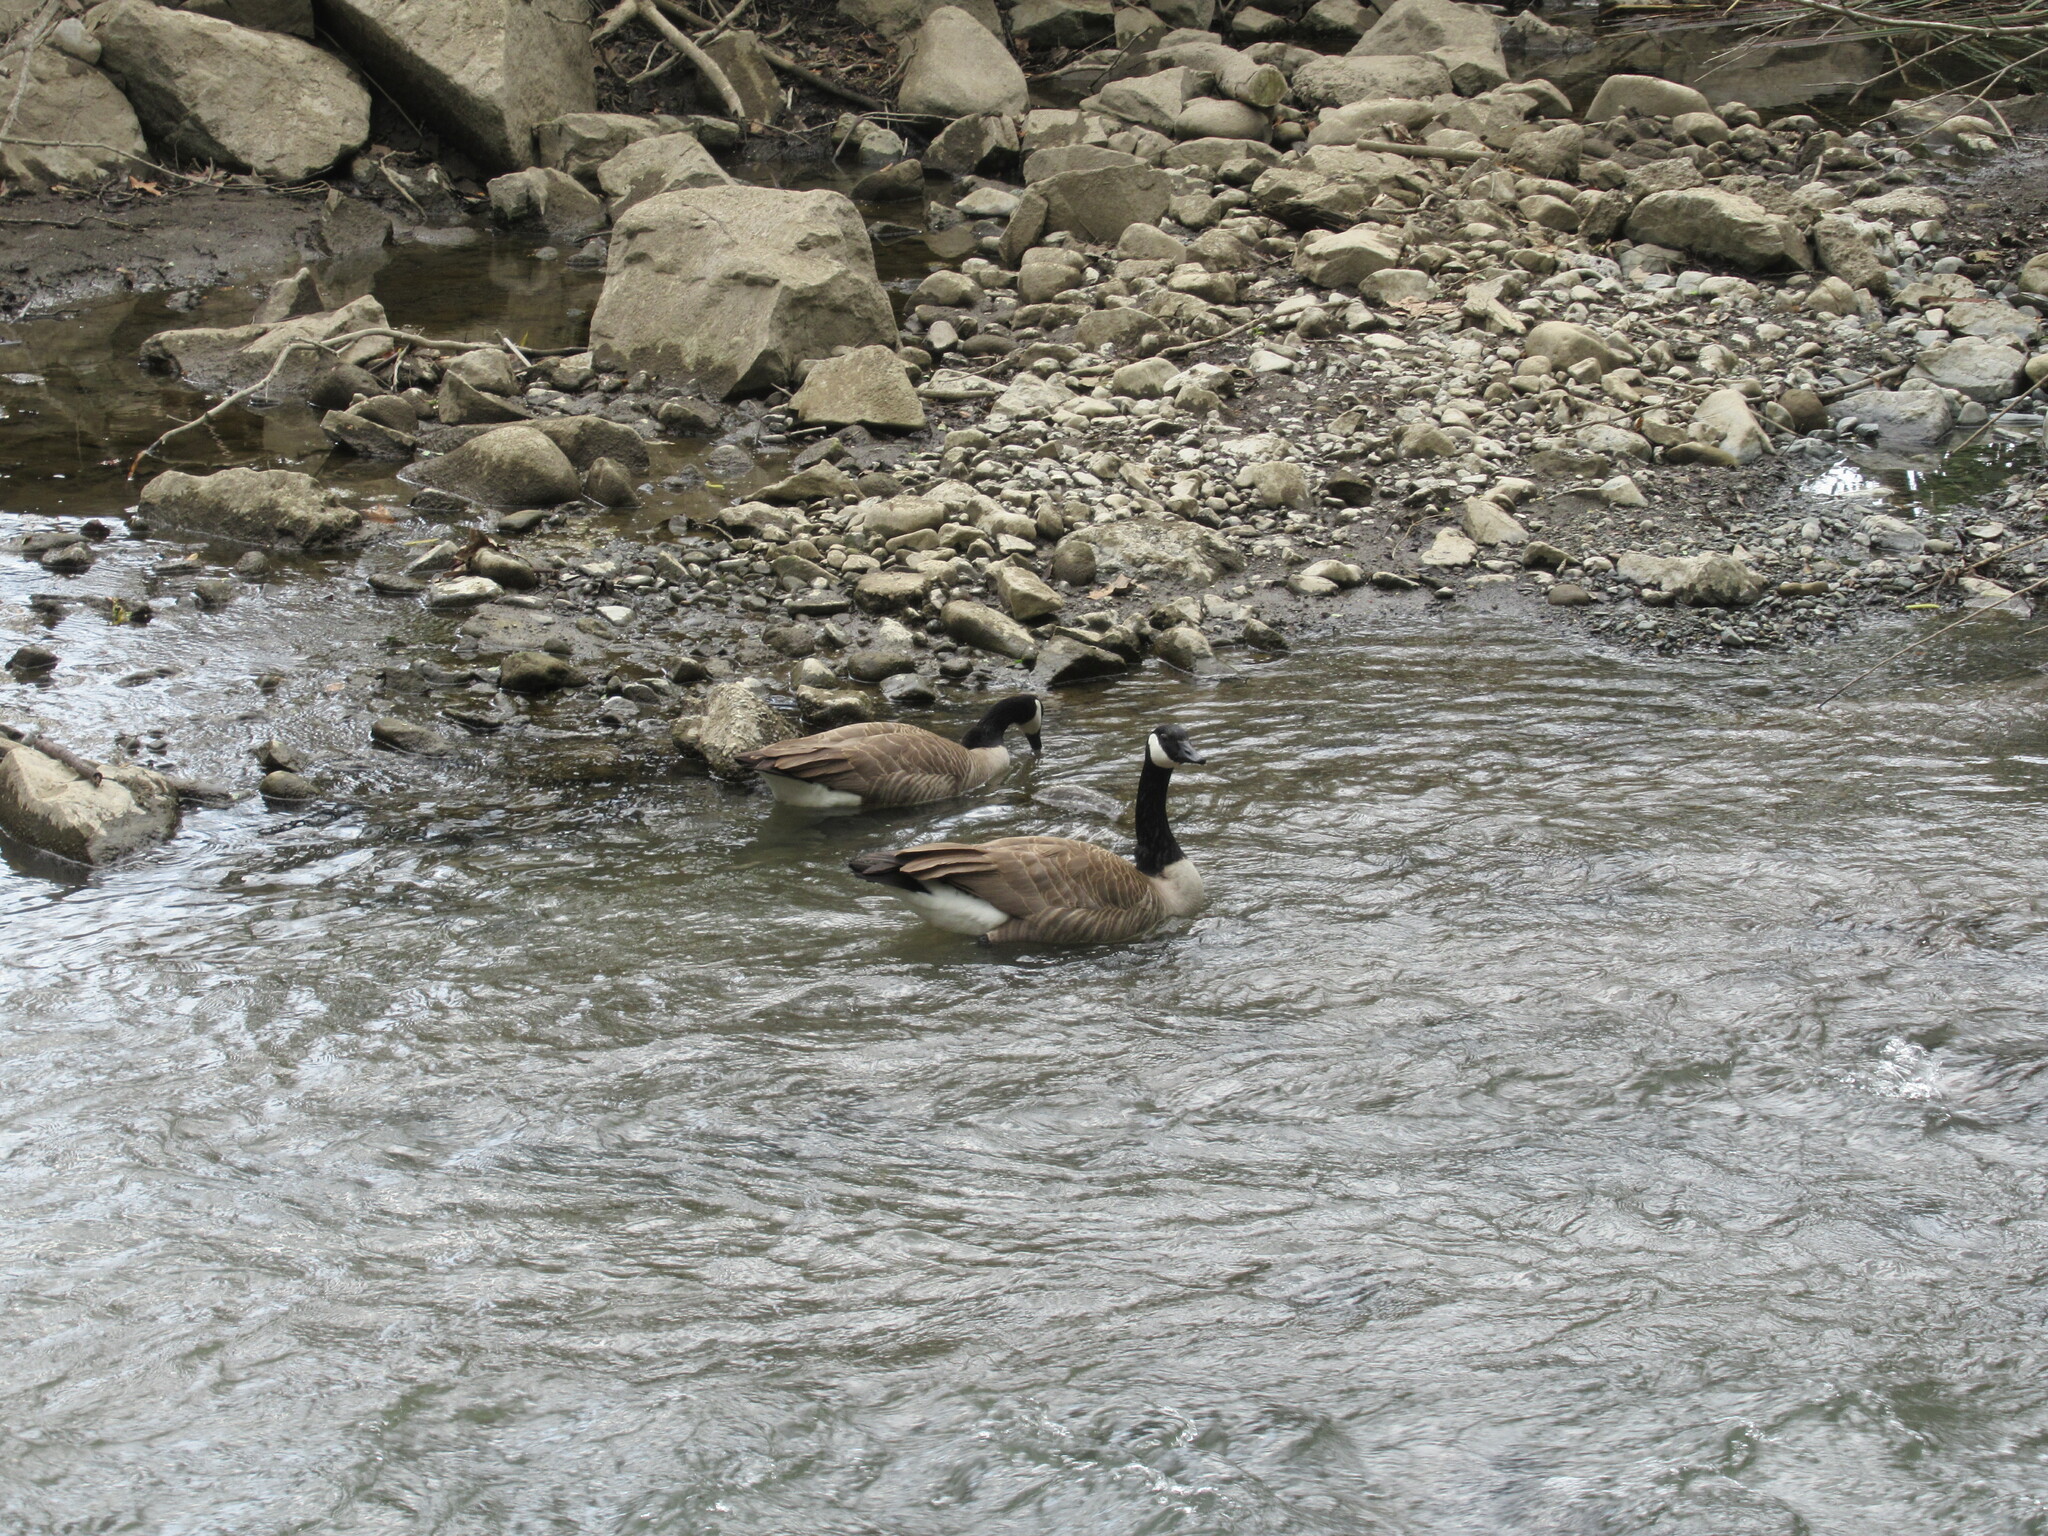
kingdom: Animalia
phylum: Chordata
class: Aves
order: Anseriformes
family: Anatidae
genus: Branta
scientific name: Branta canadensis
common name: Canada goose
